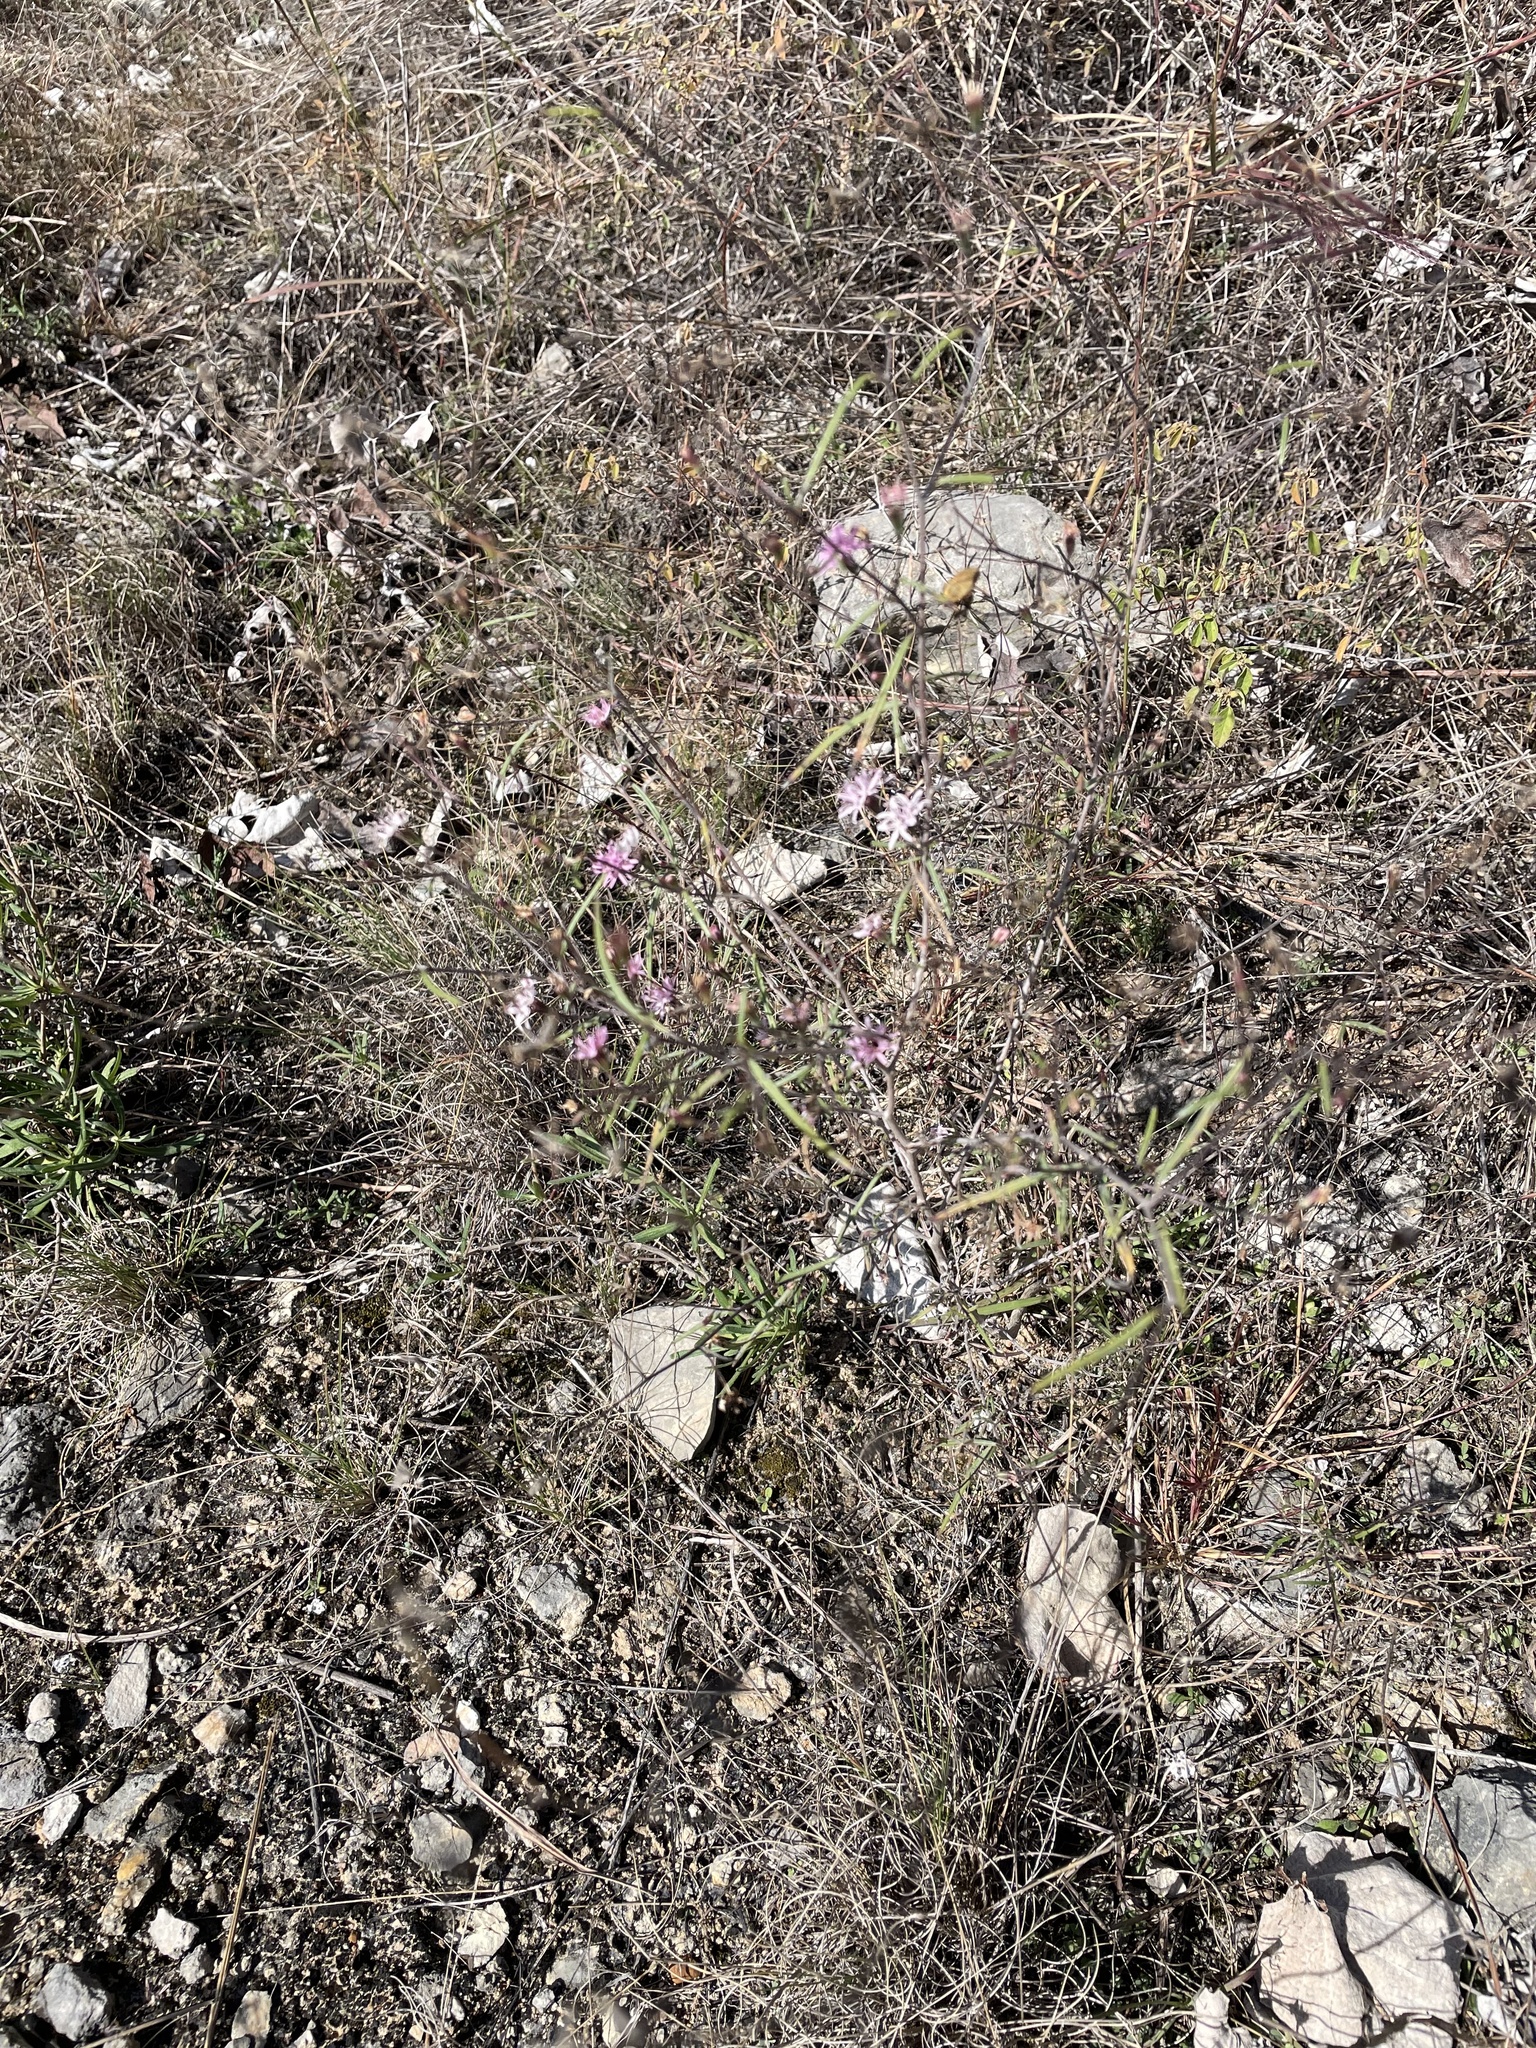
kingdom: Plantae
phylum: Tracheophyta
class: Magnoliopsida
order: Asterales
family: Asteraceae
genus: Palafoxia
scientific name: Palafoxia callosa
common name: Small palafox
